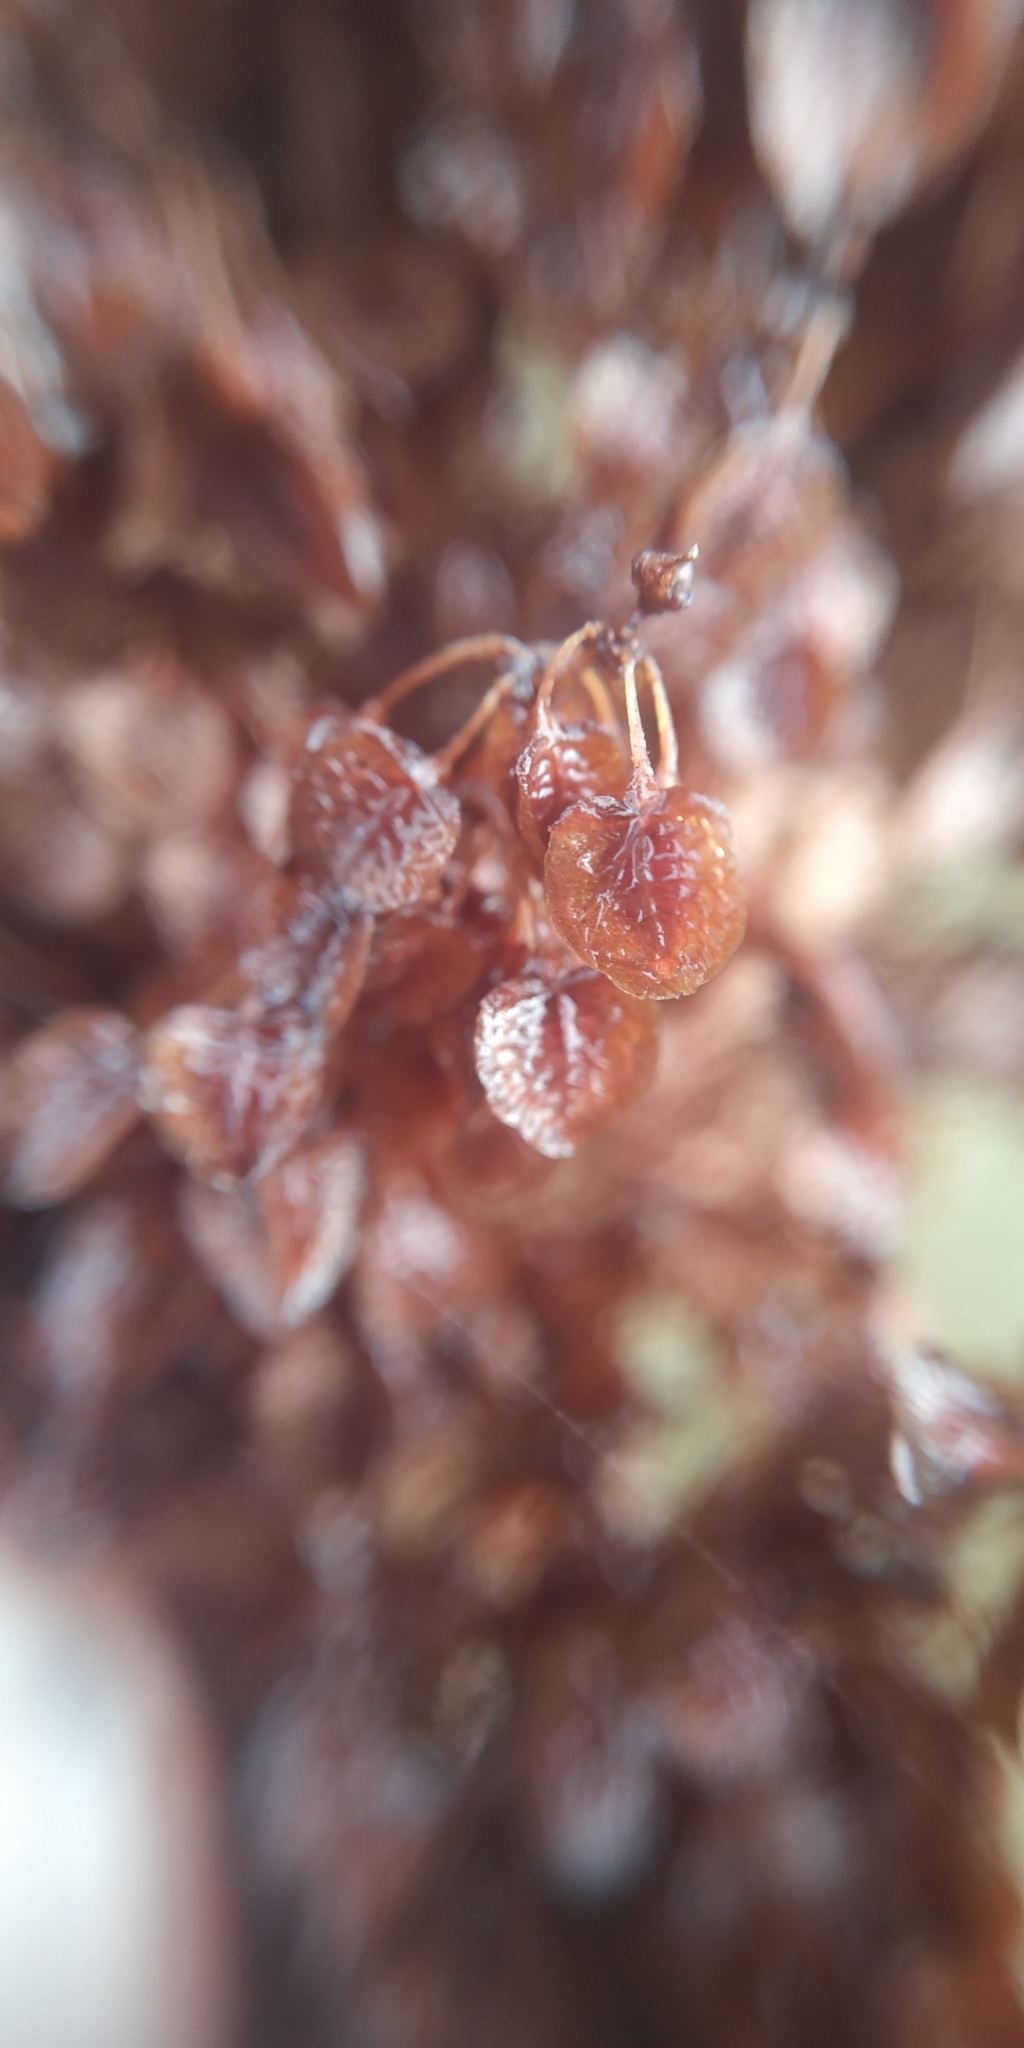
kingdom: Plantae
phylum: Tracheophyta
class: Magnoliopsida
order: Caryophyllales
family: Polygonaceae
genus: Rumex
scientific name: Rumex pseudonatronatus
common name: Field dock
